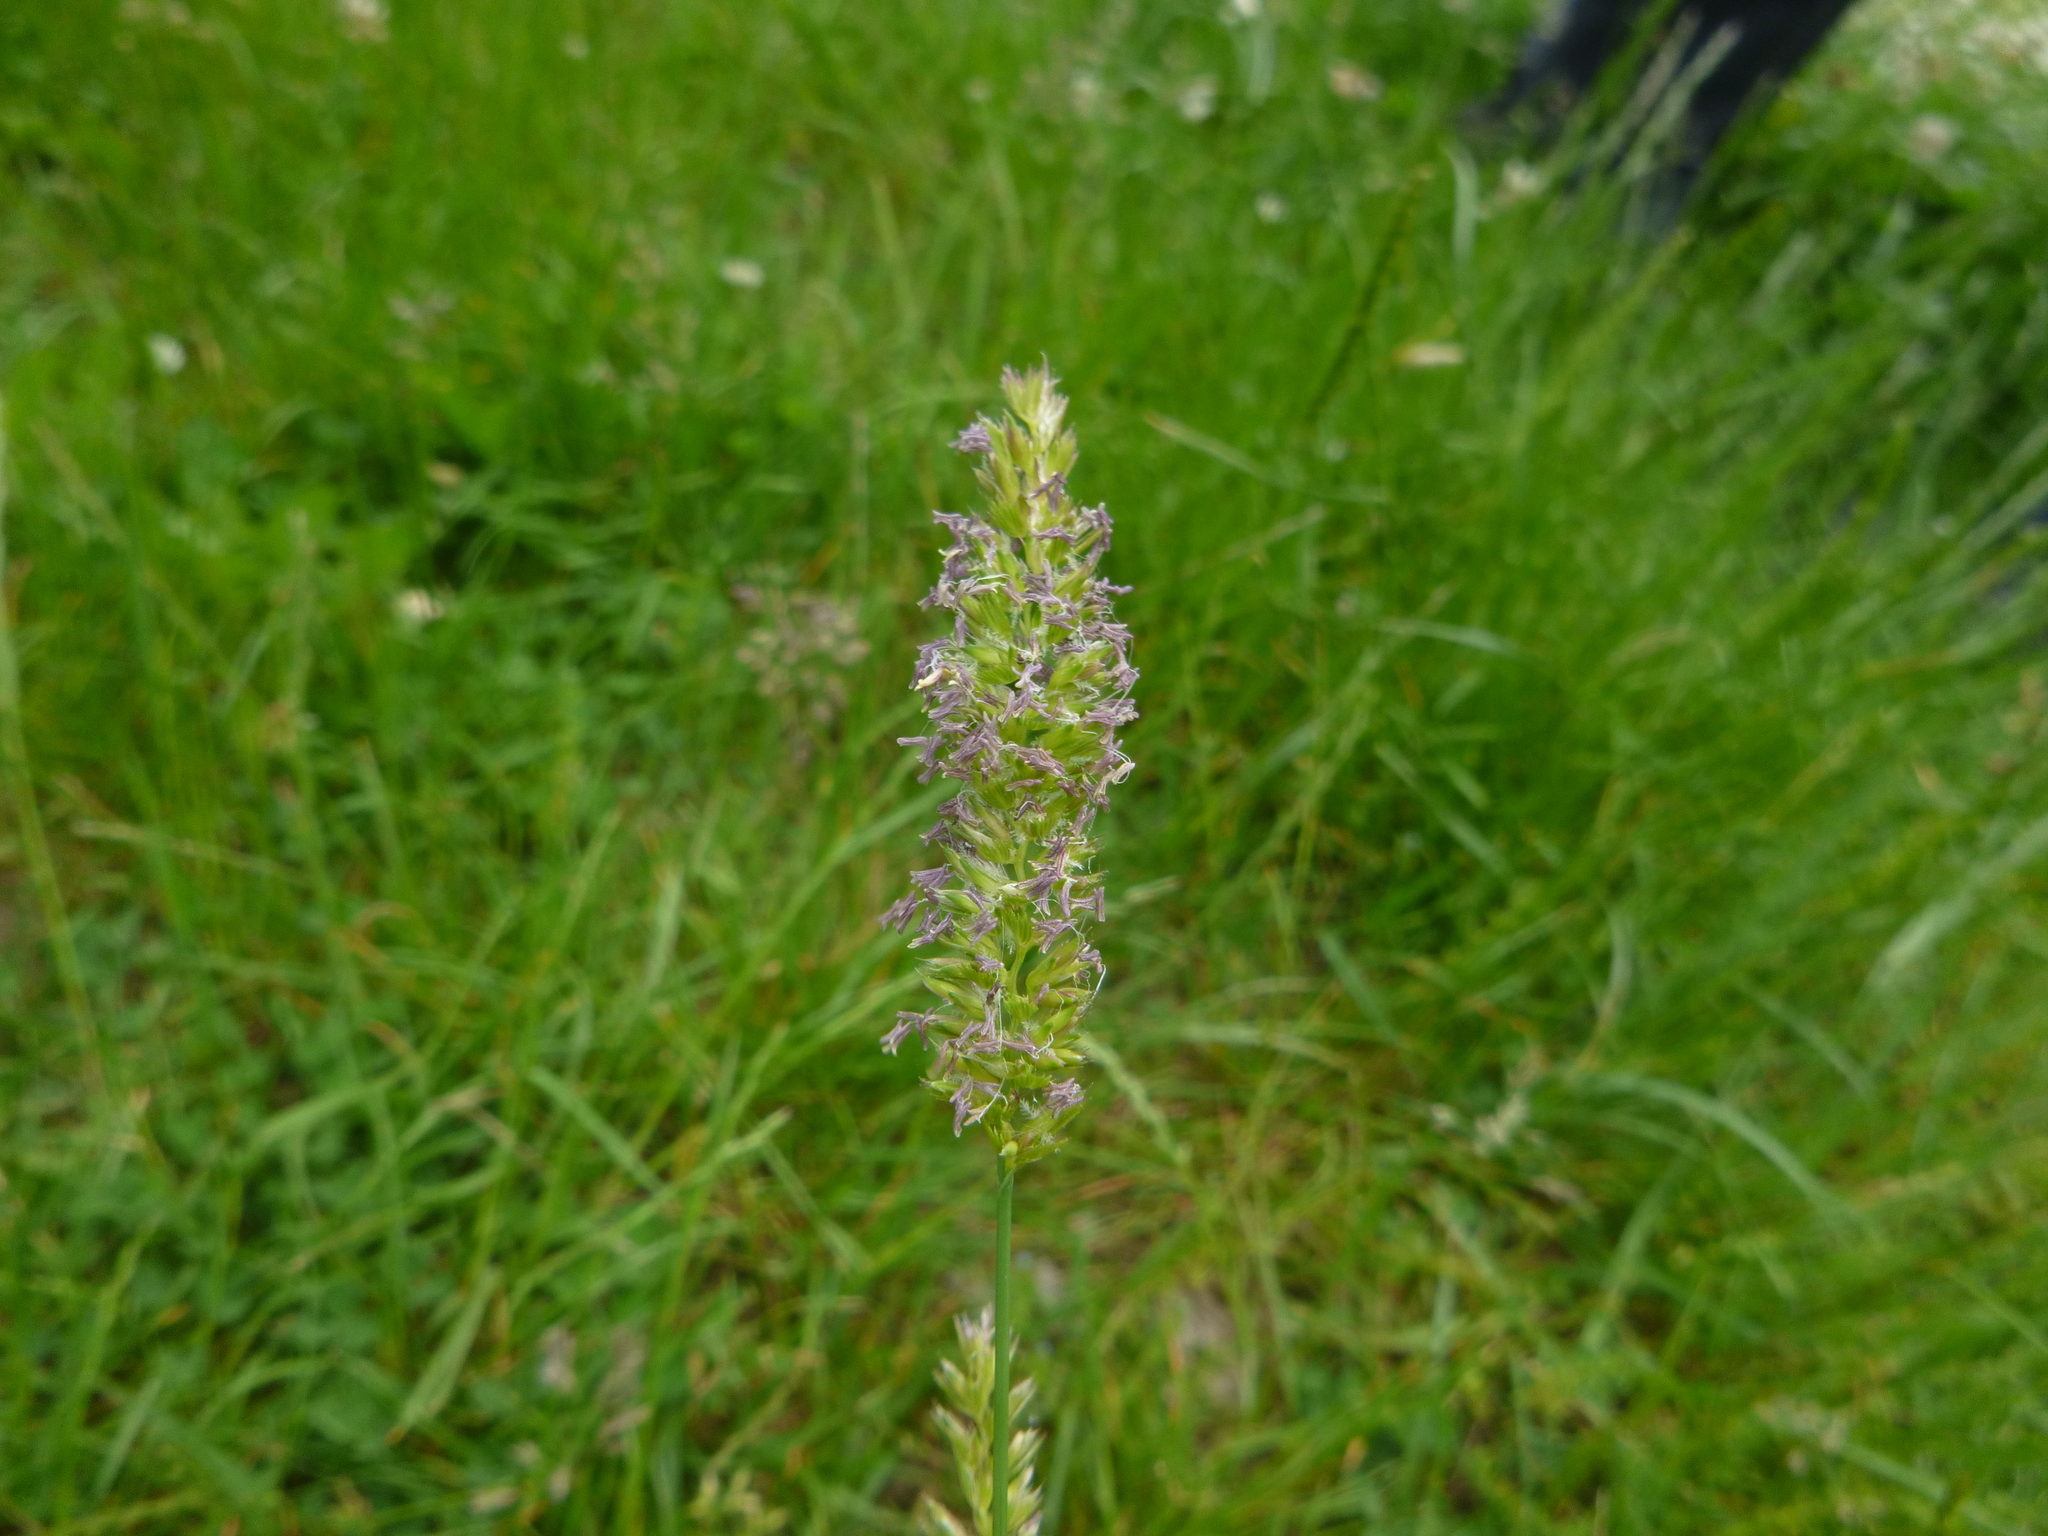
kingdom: Plantae
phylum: Tracheophyta
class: Liliopsida
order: Poales
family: Poaceae
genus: Cynosurus
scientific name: Cynosurus cristatus
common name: Crested dog's-tail
